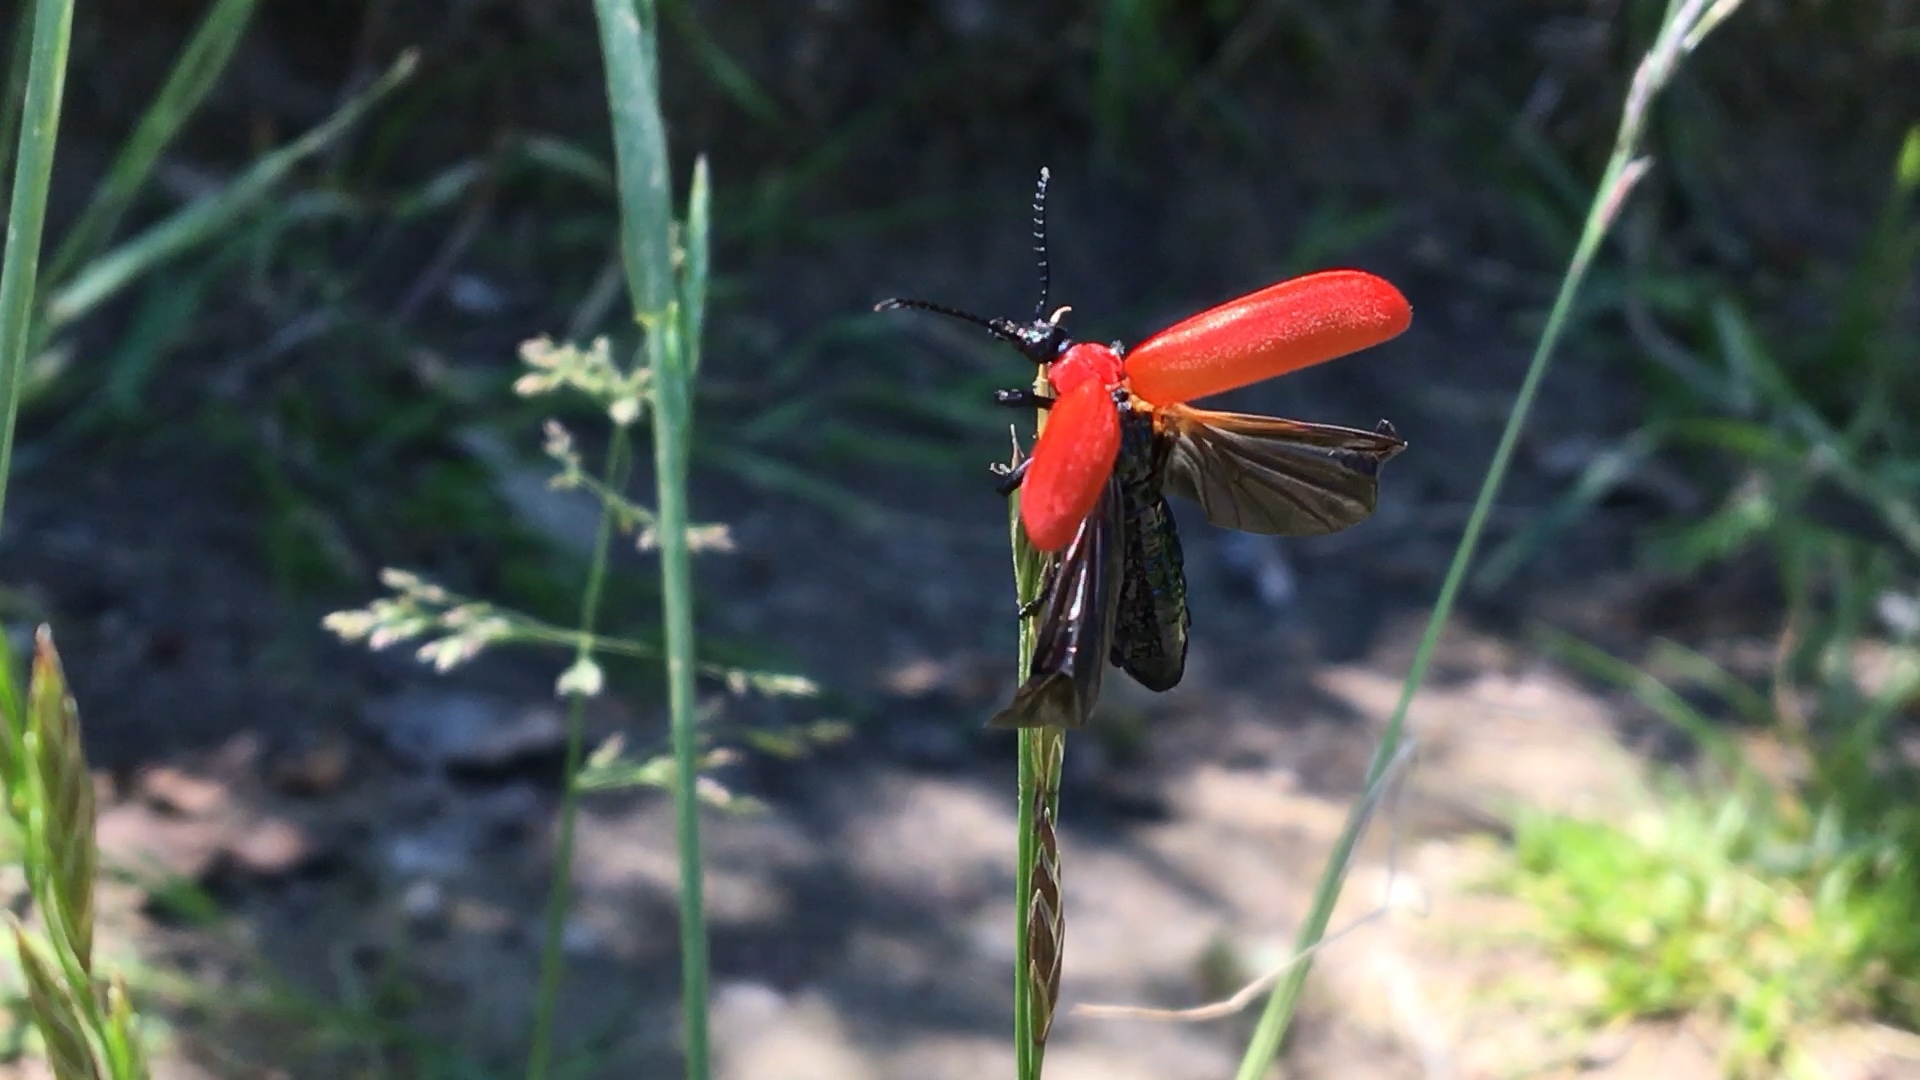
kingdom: Animalia
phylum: Arthropoda
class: Insecta
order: Coleoptera
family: Pyrochroidae
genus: Pyrochroa
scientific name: Pyrochroa coccinea
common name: Black-headed cardinal beetle
